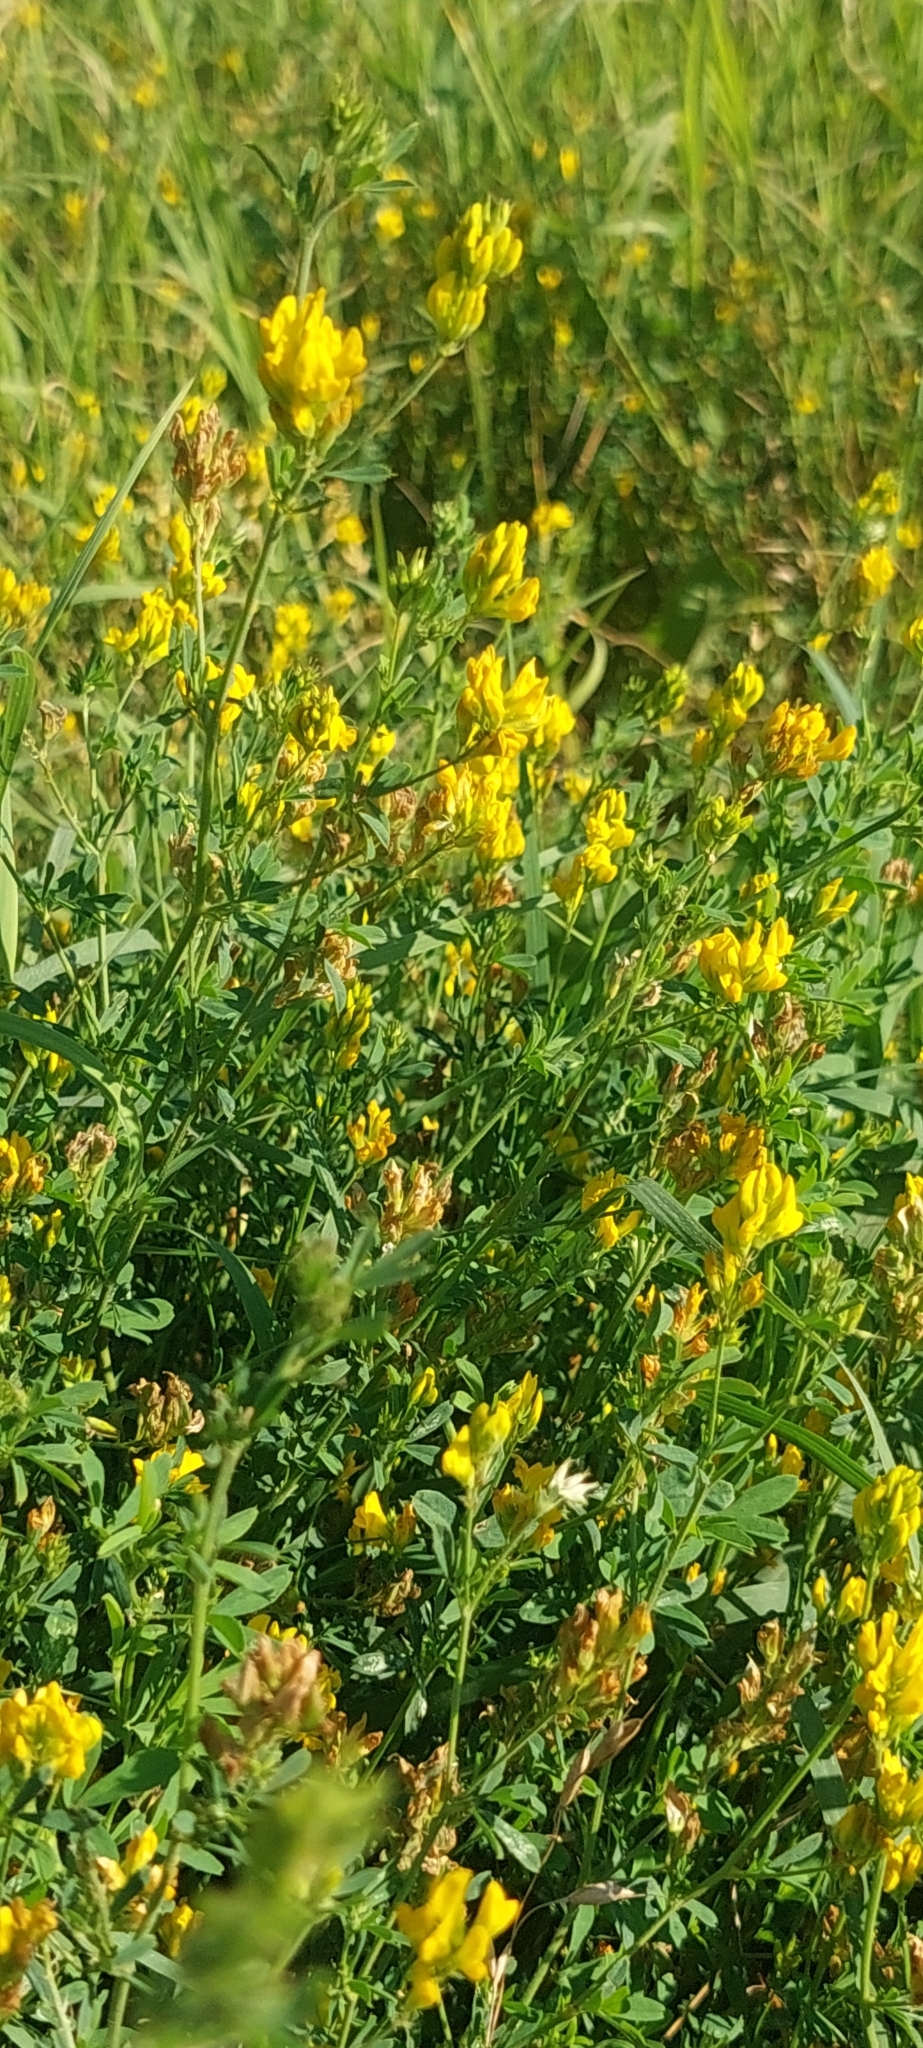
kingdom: Plantae
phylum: Tracheophyta
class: Magnoliopsida
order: Fabales
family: Fabaceae
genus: Medicago
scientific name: Medicago falcata
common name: Sickle medick
